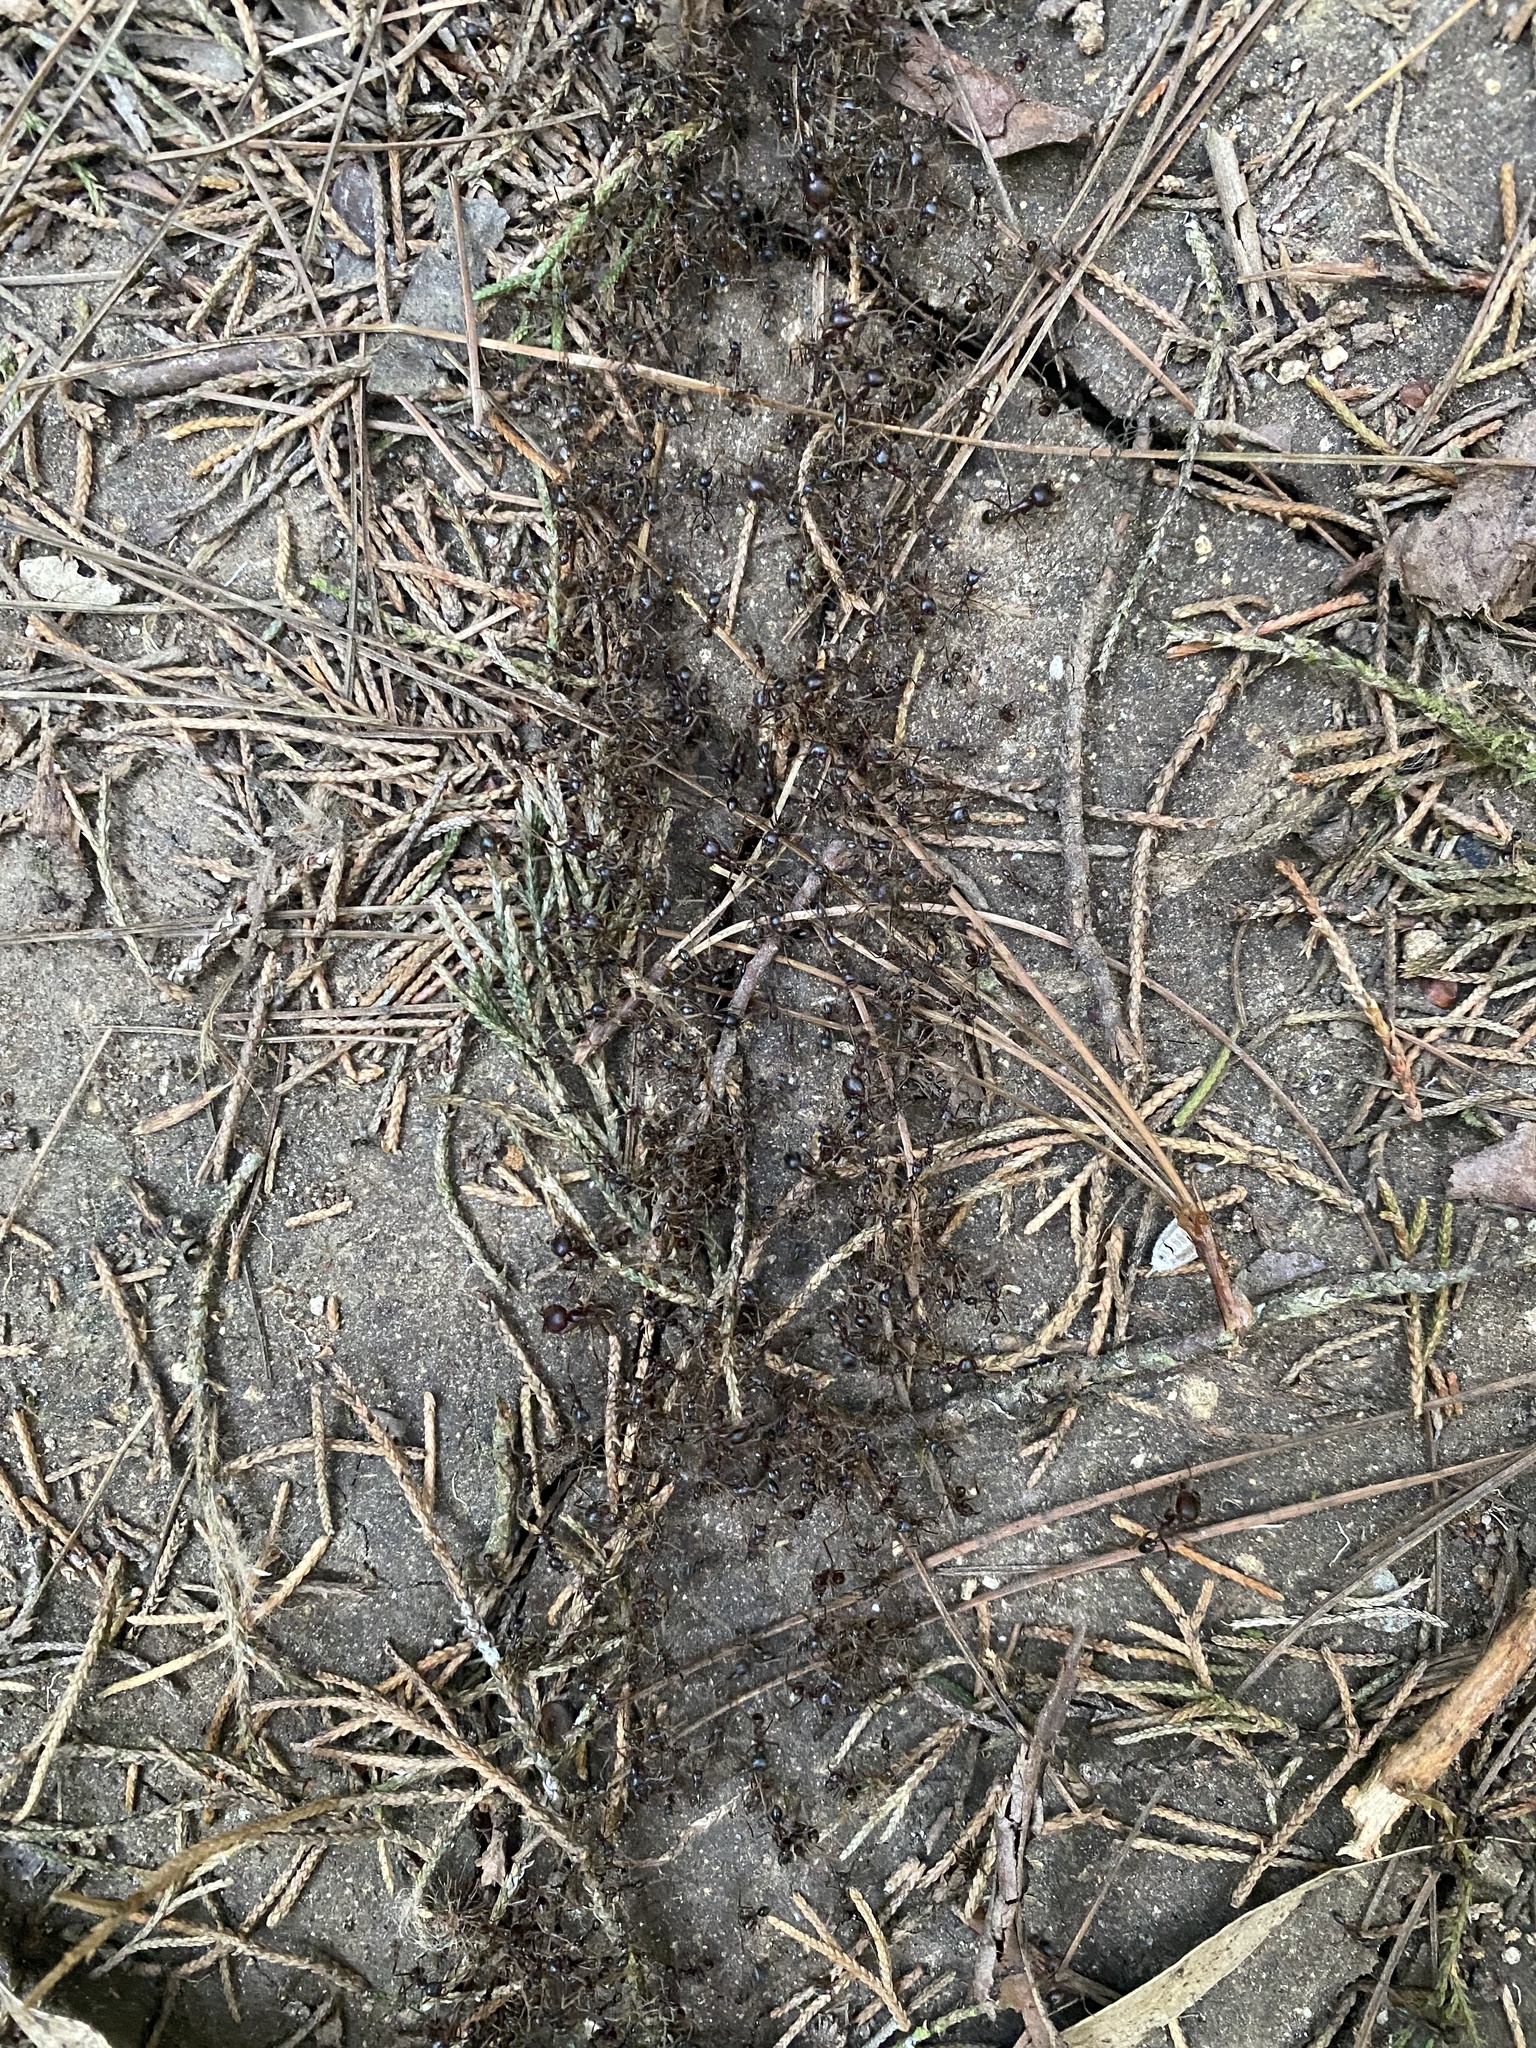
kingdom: Animalia
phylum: Arthropoda
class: Insecta
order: Hymenoptera
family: Formicidae
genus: Labidus
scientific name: Labidus praedator
